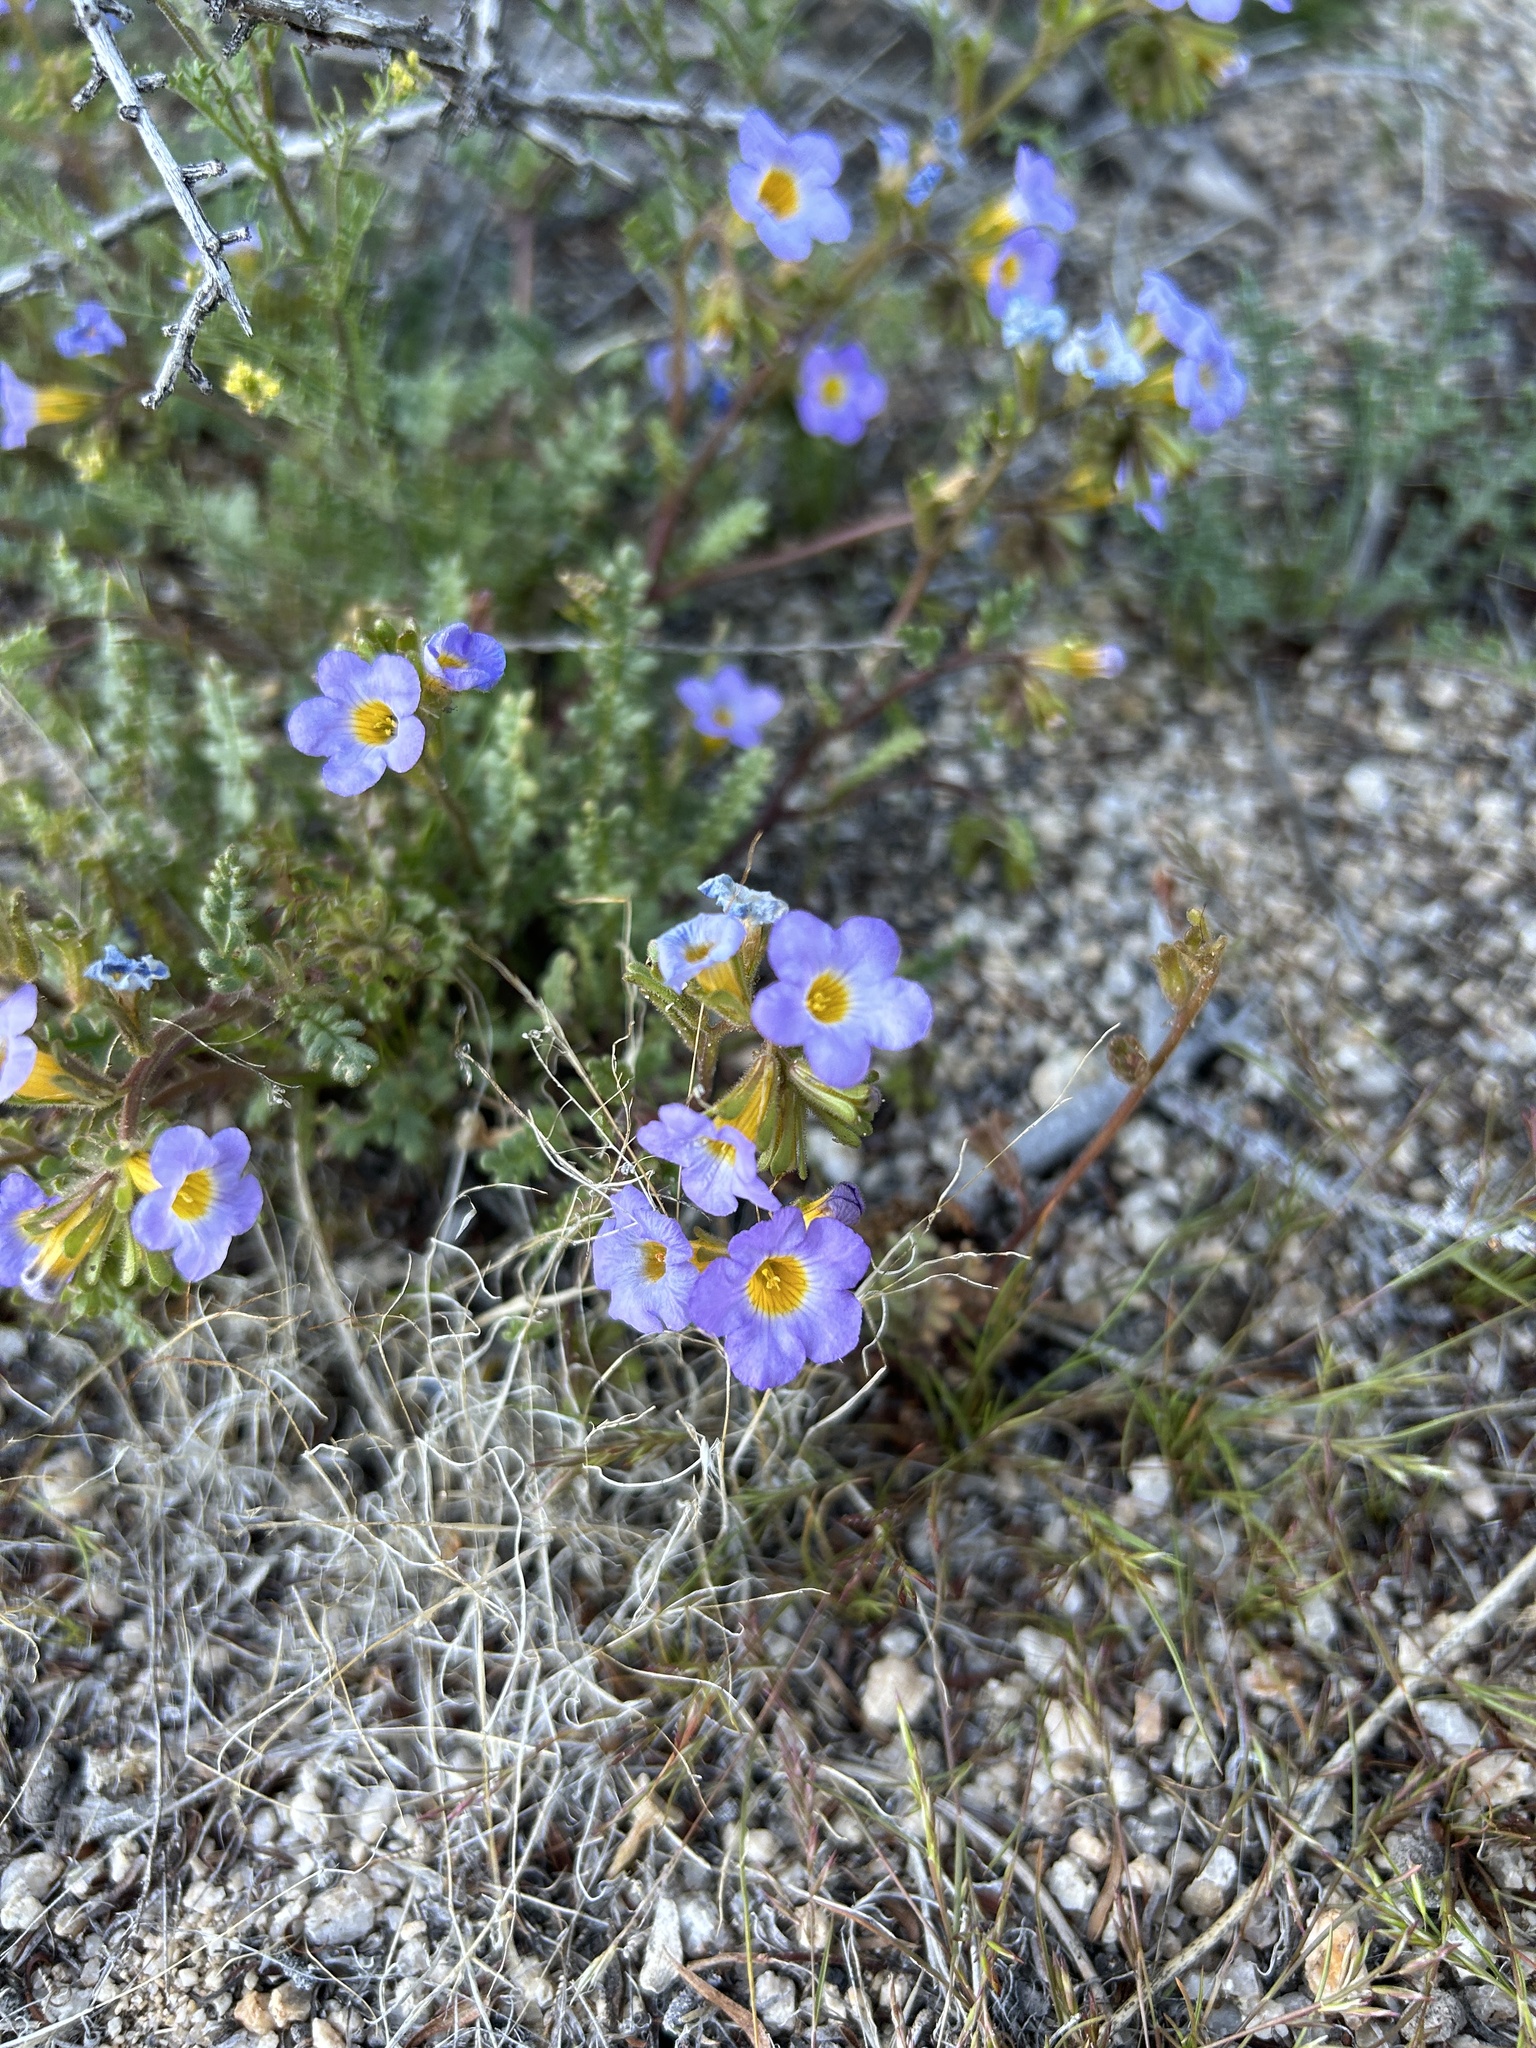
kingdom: Plantae
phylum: Tracheophyta
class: Magnoliopsida
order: Boraginales
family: Hydrophyllaceae
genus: Phacelia
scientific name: Phacelia fremontii
